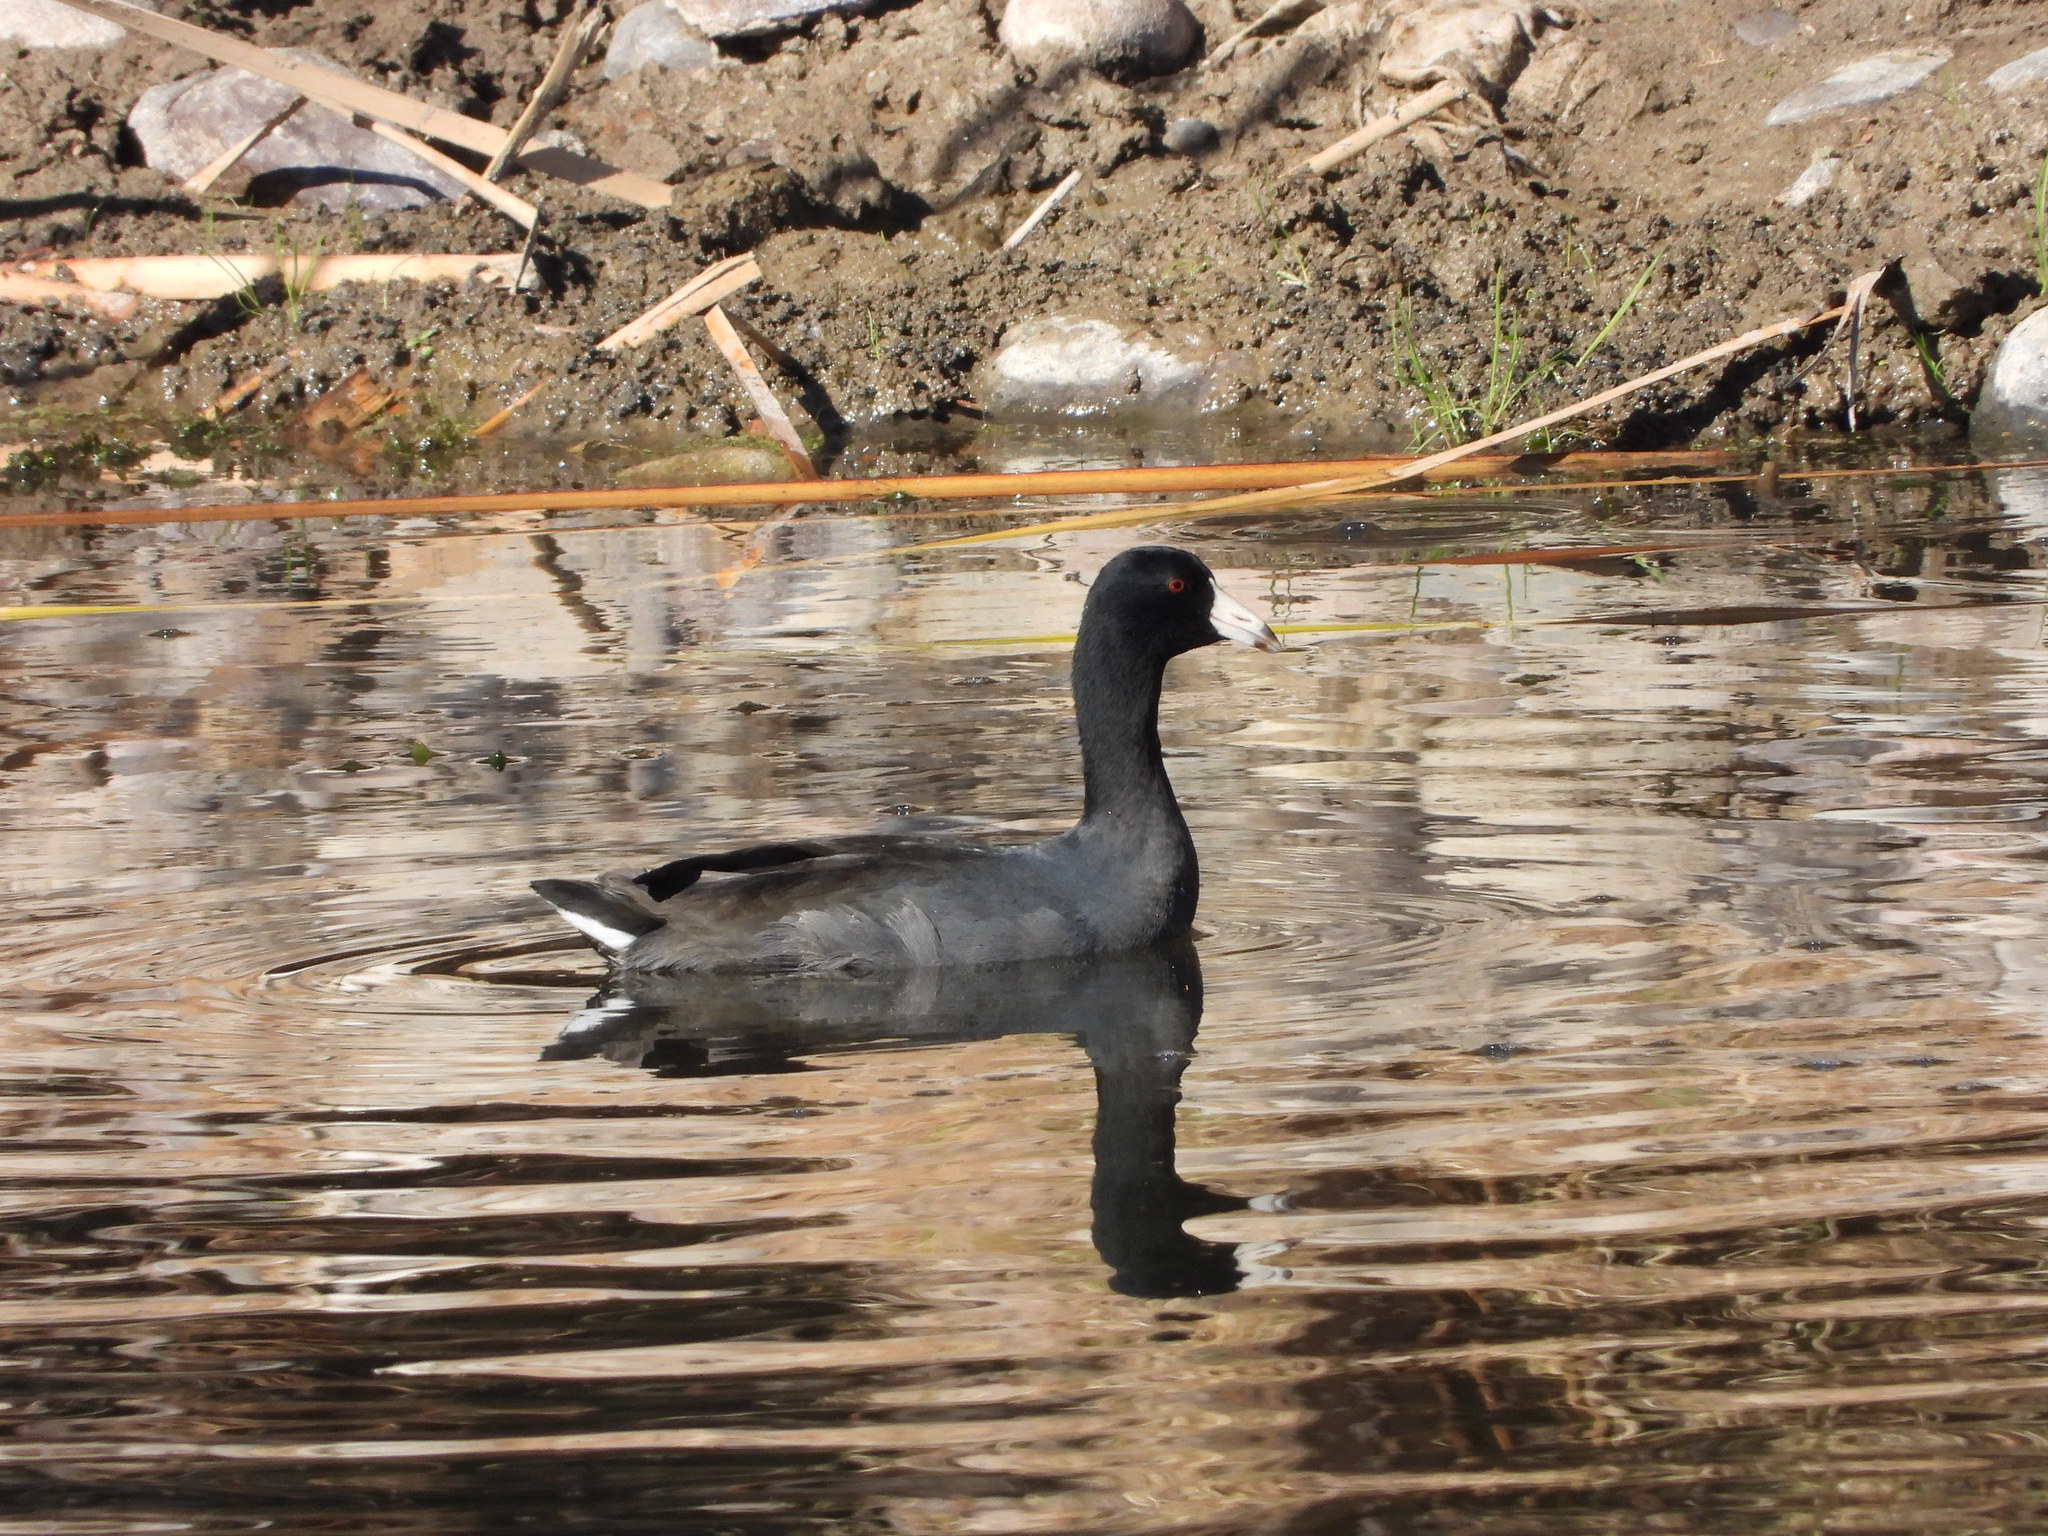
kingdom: Animalia
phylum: Chordata
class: Aves
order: Gruiformes
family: Rallidae
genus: Fulica
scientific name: Fulica americana
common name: American coot
